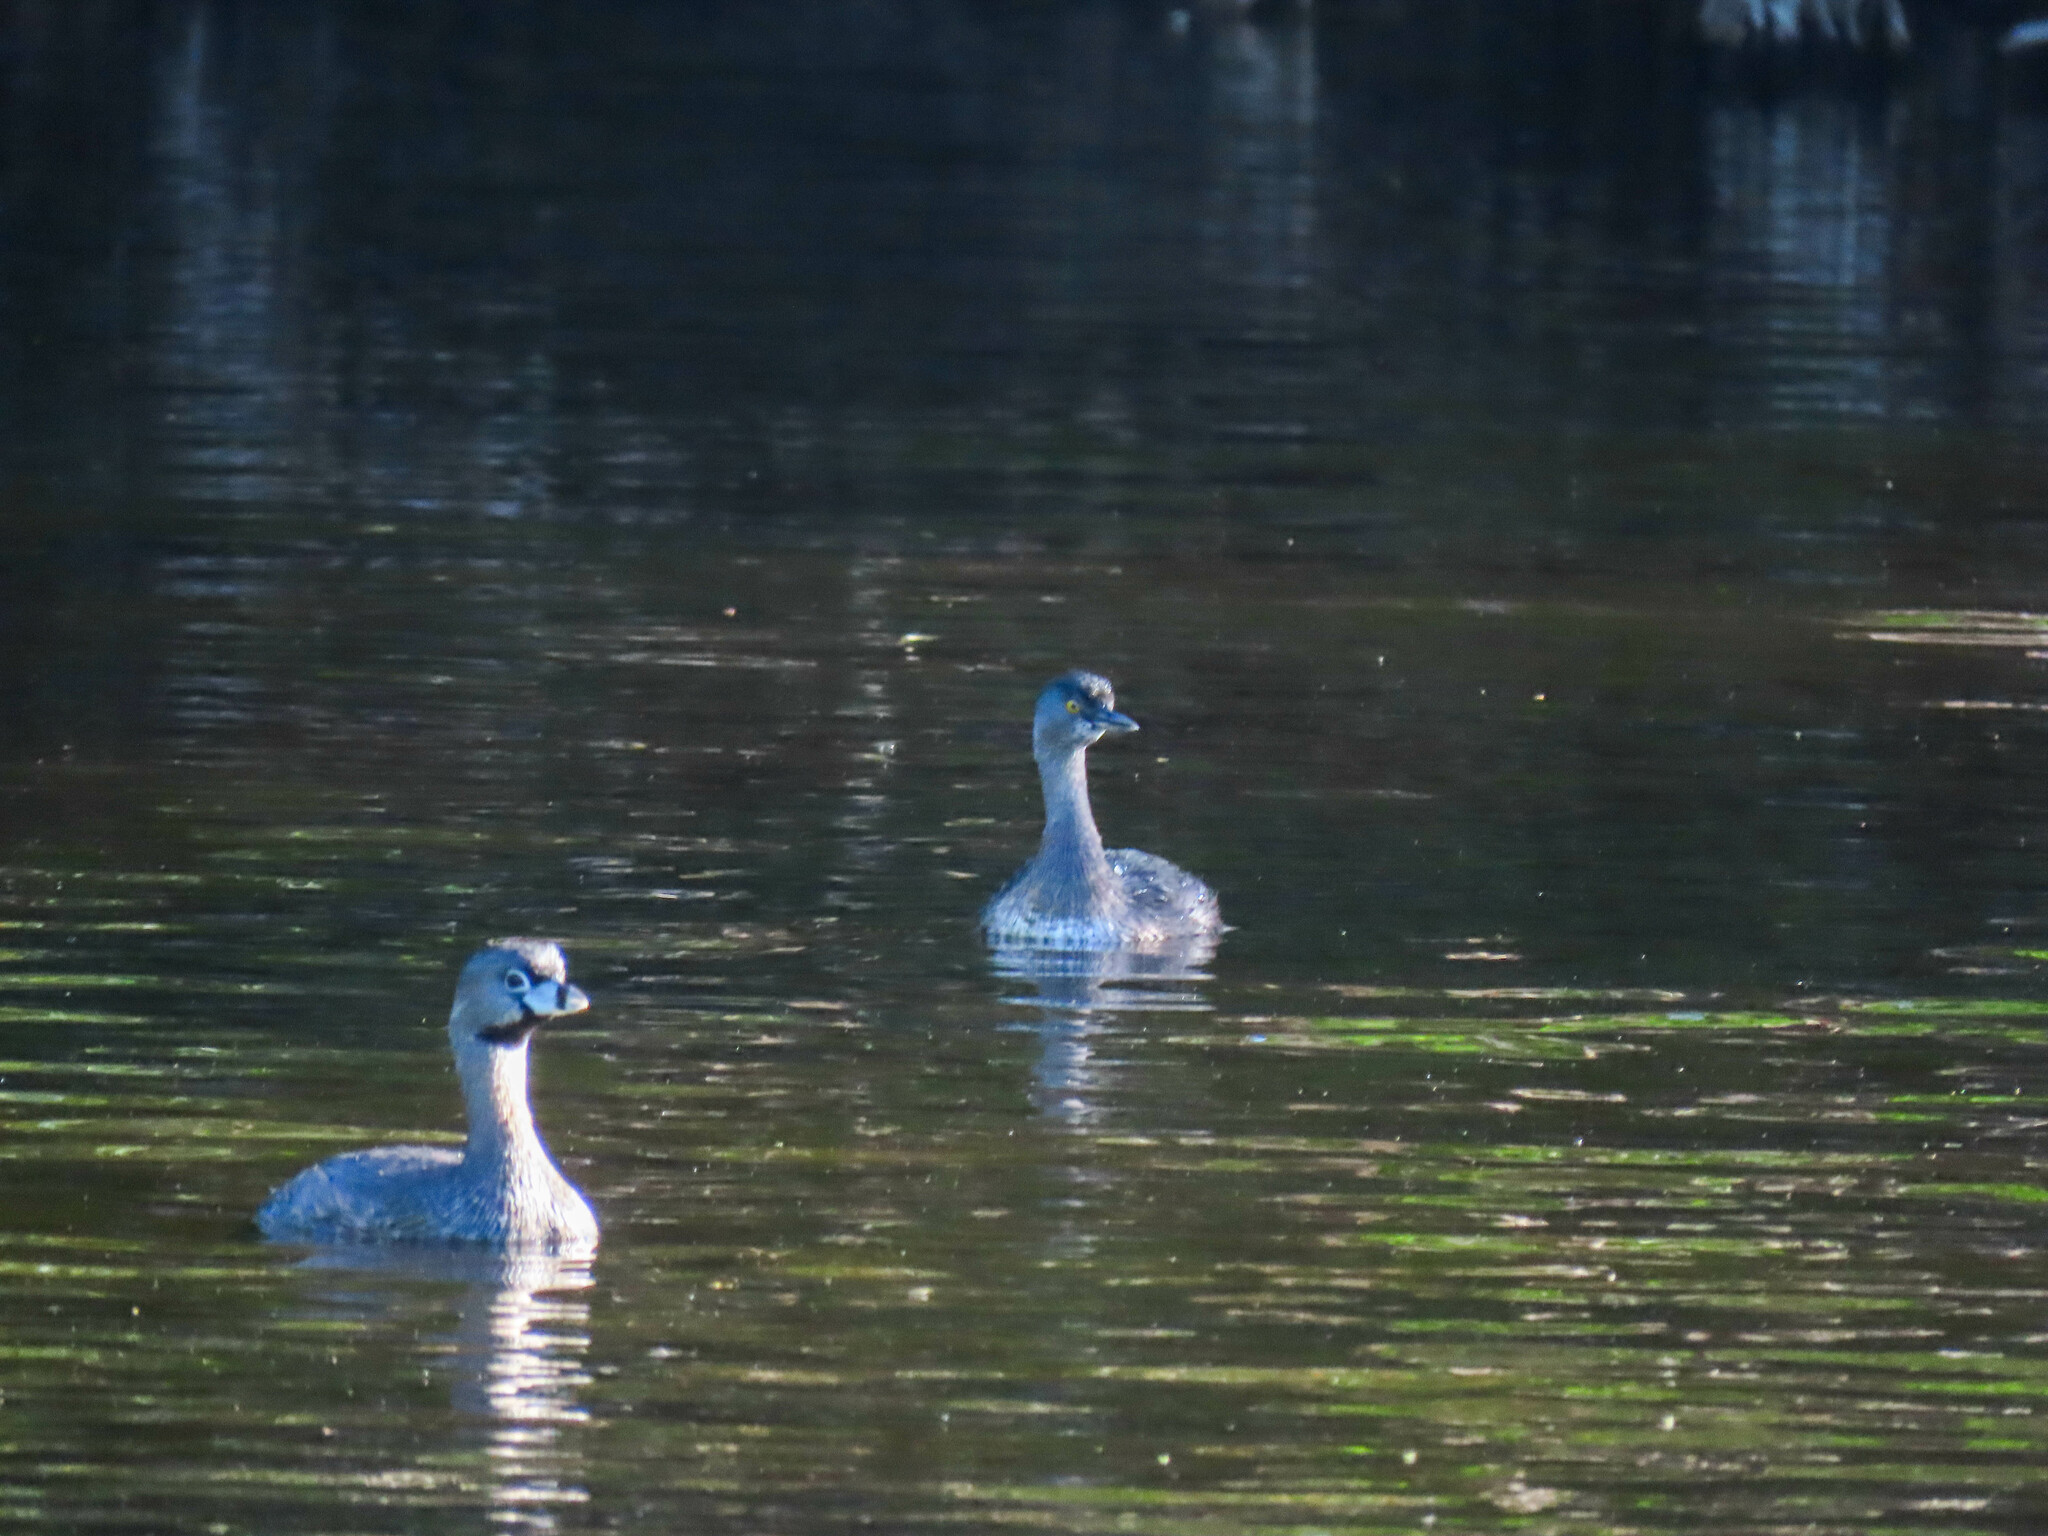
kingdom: Animalia
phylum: Chordata
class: Aves
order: Podicipediformes
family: Podicipedidae
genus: Podilymbus
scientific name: Podilymbus podiceps
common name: Pied-billed grebe
